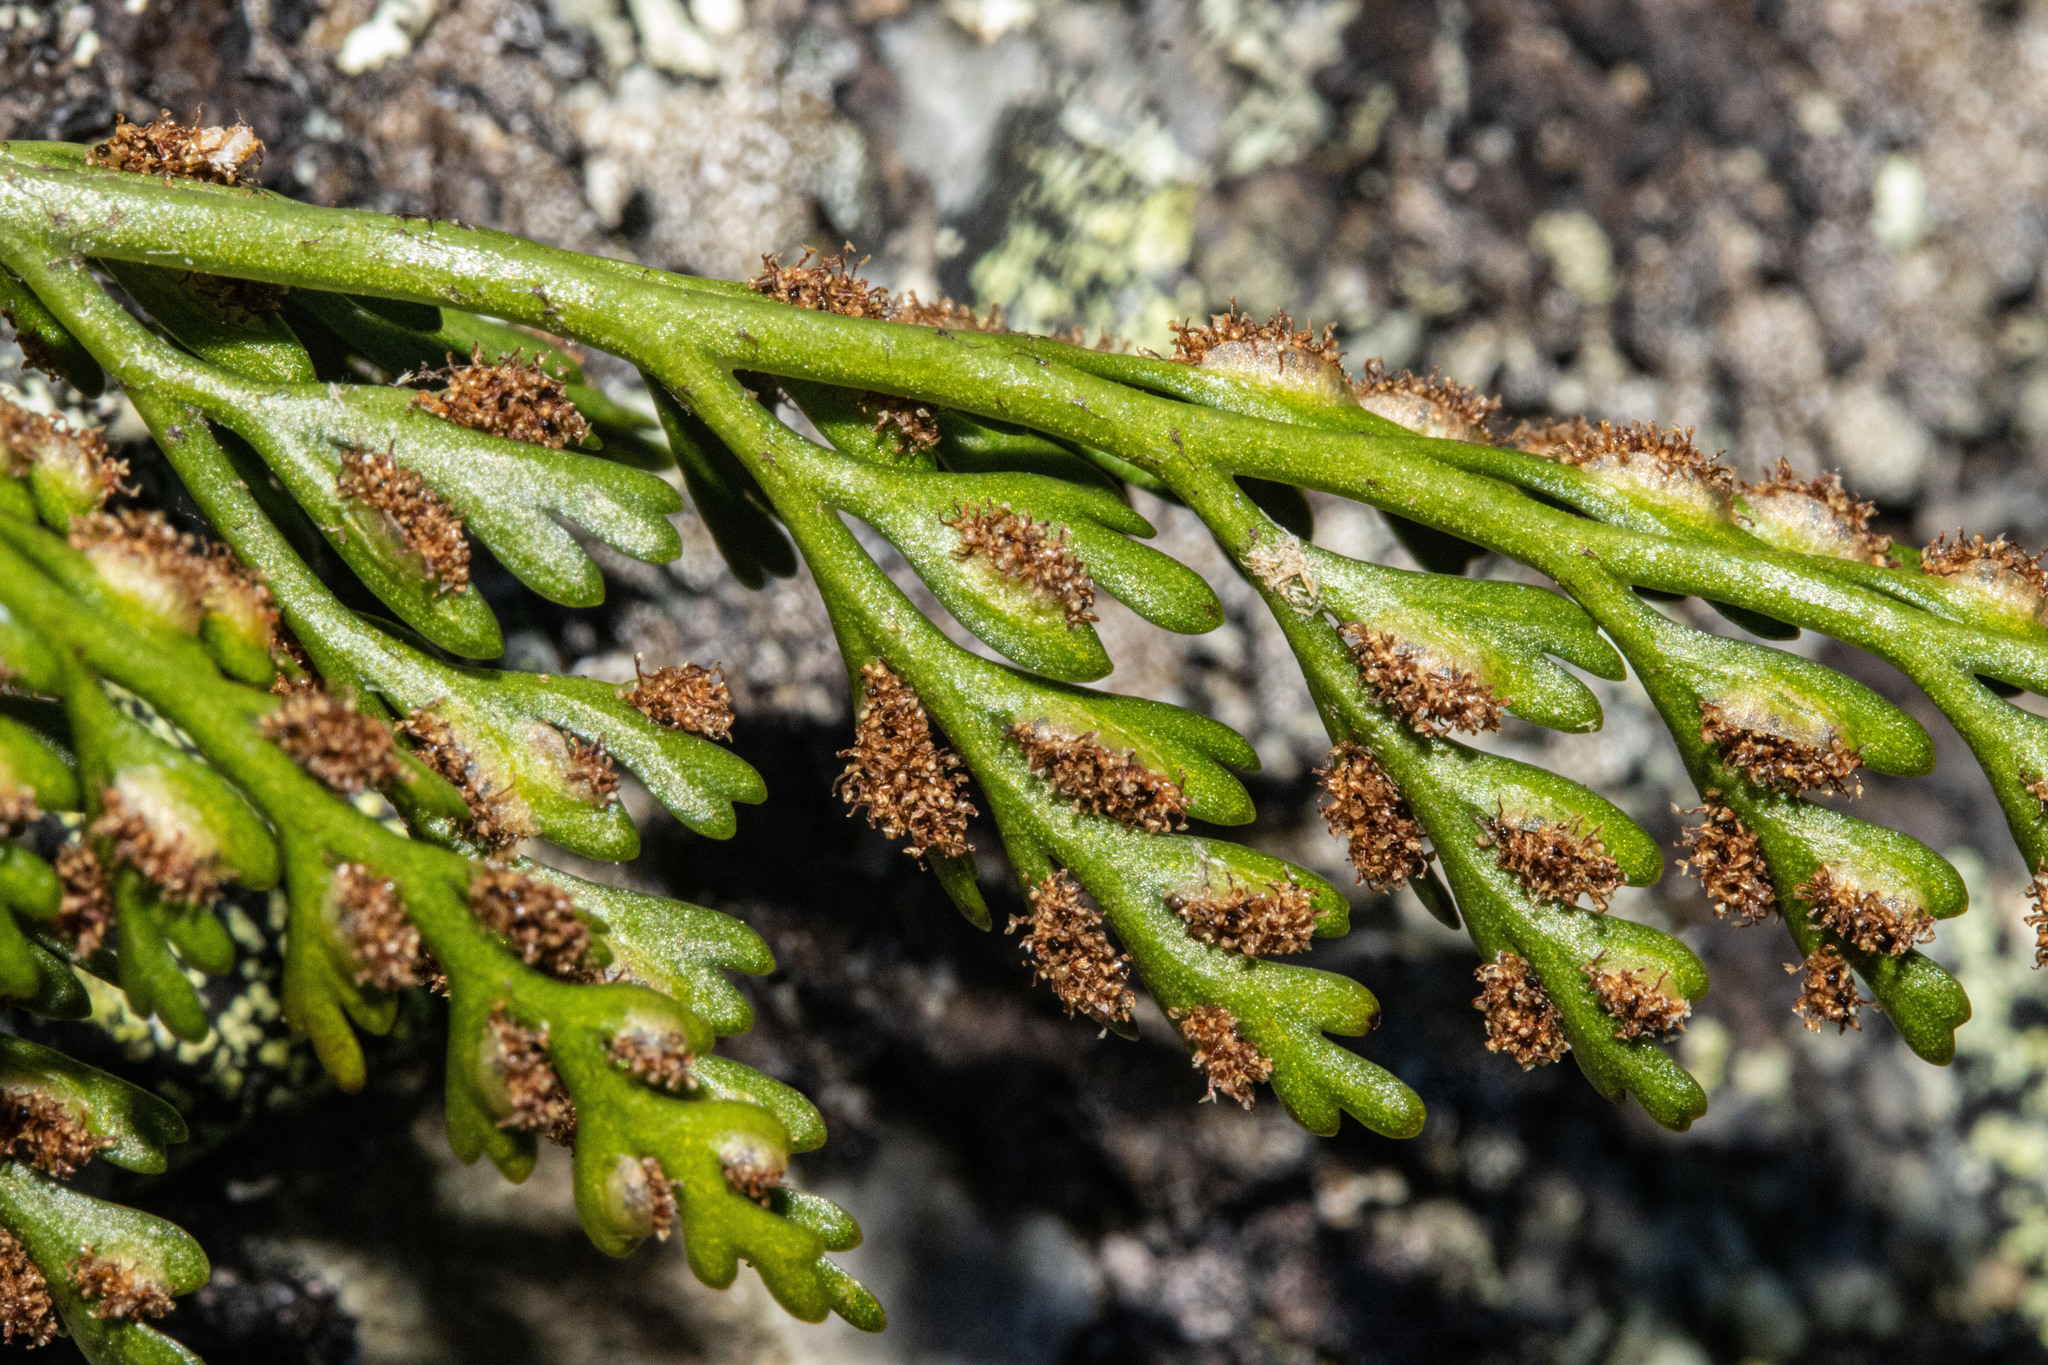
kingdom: Plantae
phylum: Tracheophyta
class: Polypodiopsida
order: Polypodiales
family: Aspleniaceae
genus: Asplenium
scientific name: Asplenium richardii
